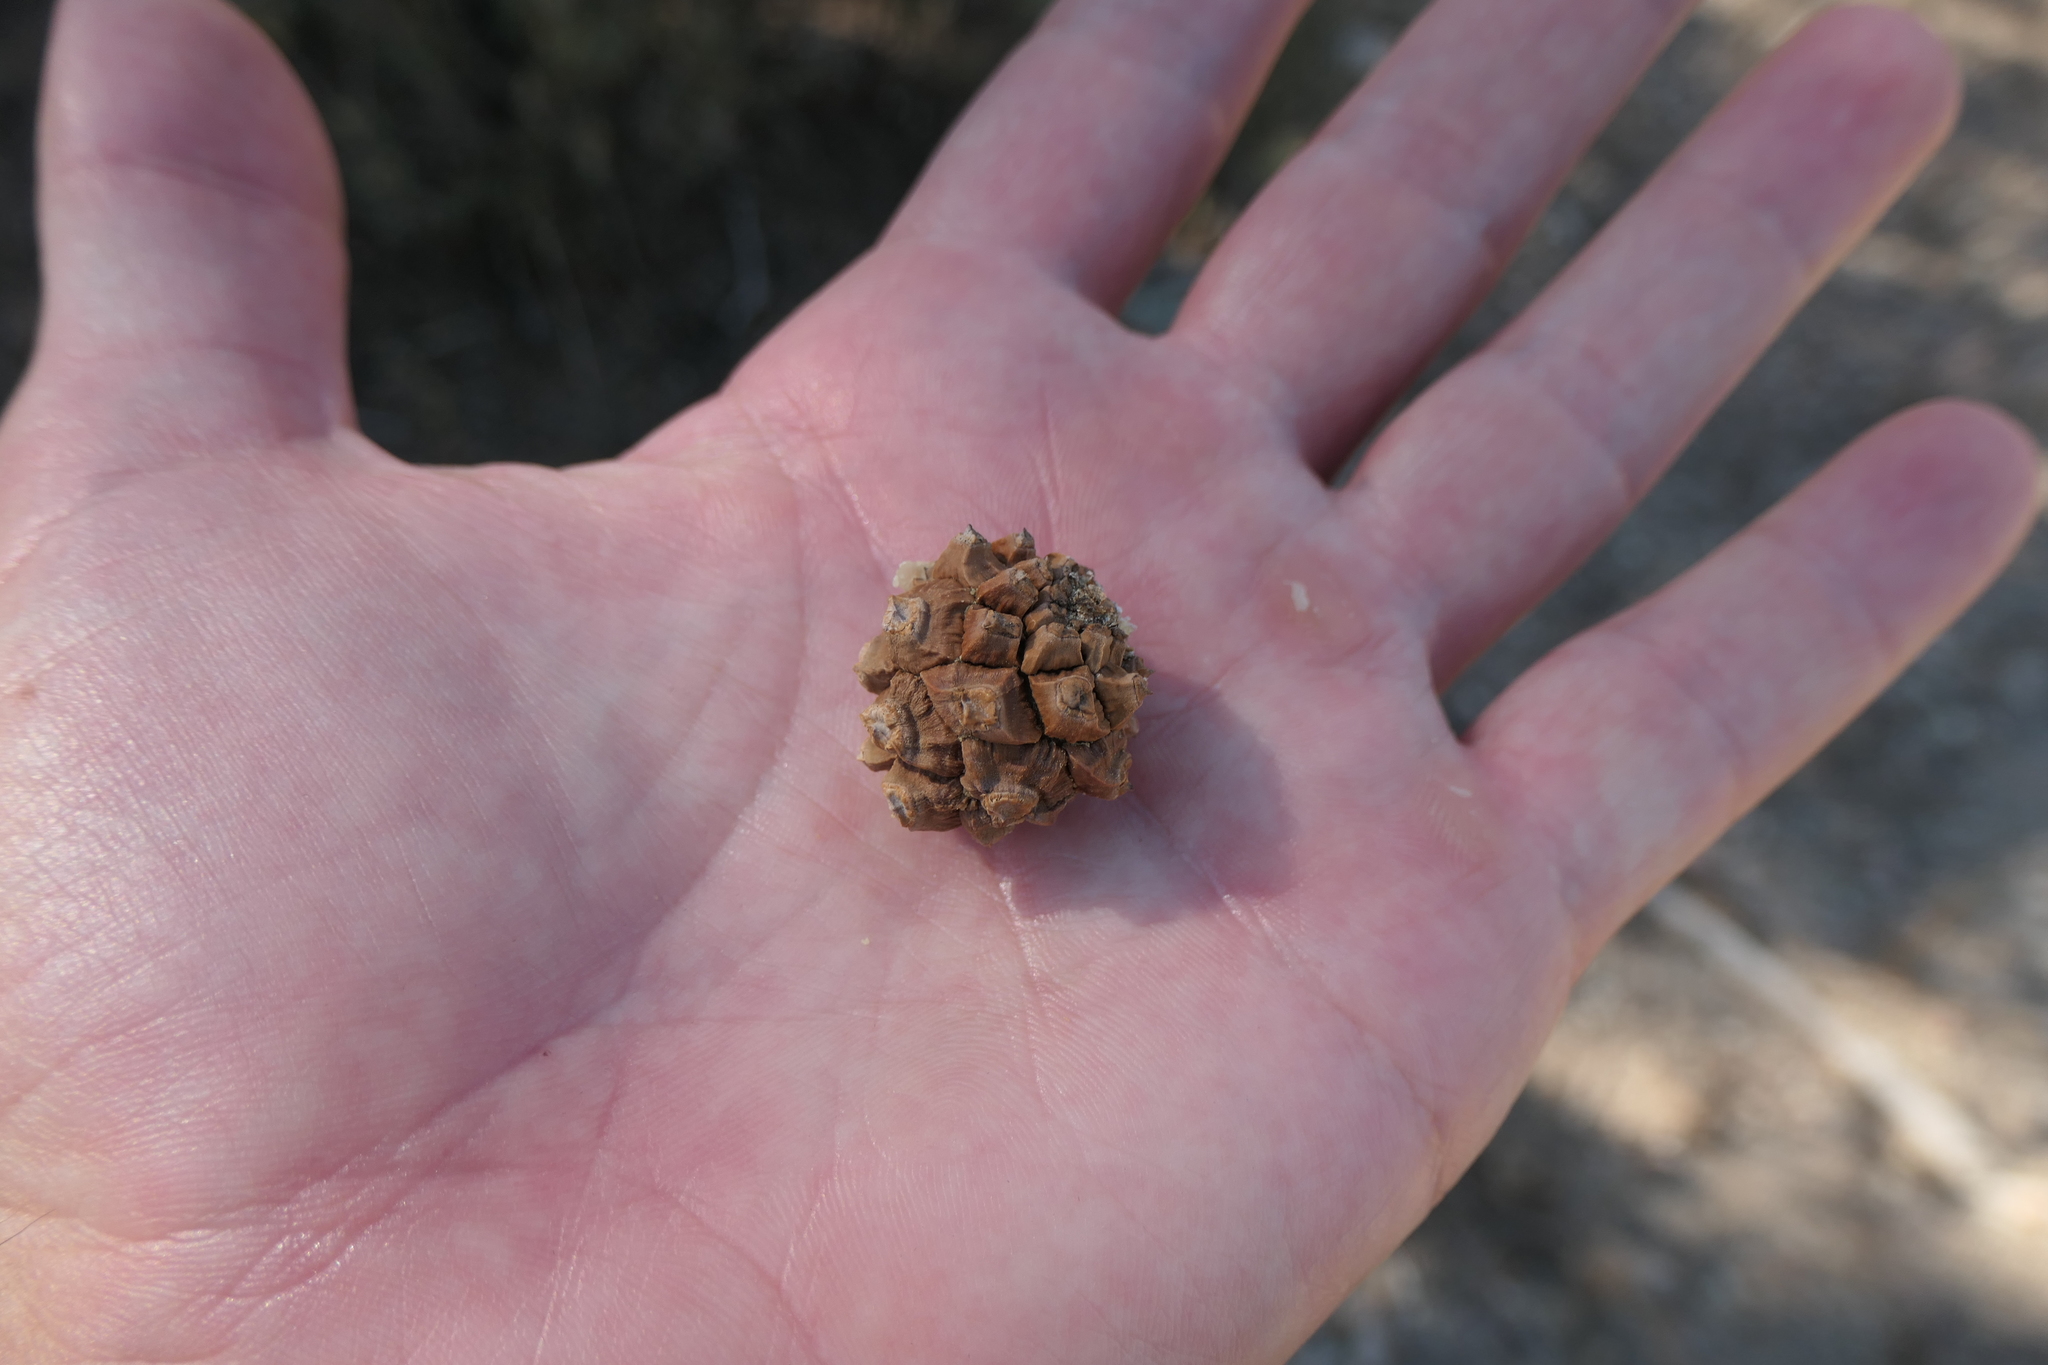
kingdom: Plantae
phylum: Tracheophyta
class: Pinopsida
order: Pinales
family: Pinaceae
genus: Pinus
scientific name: Pinus edulis
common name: Colorado pinyon
